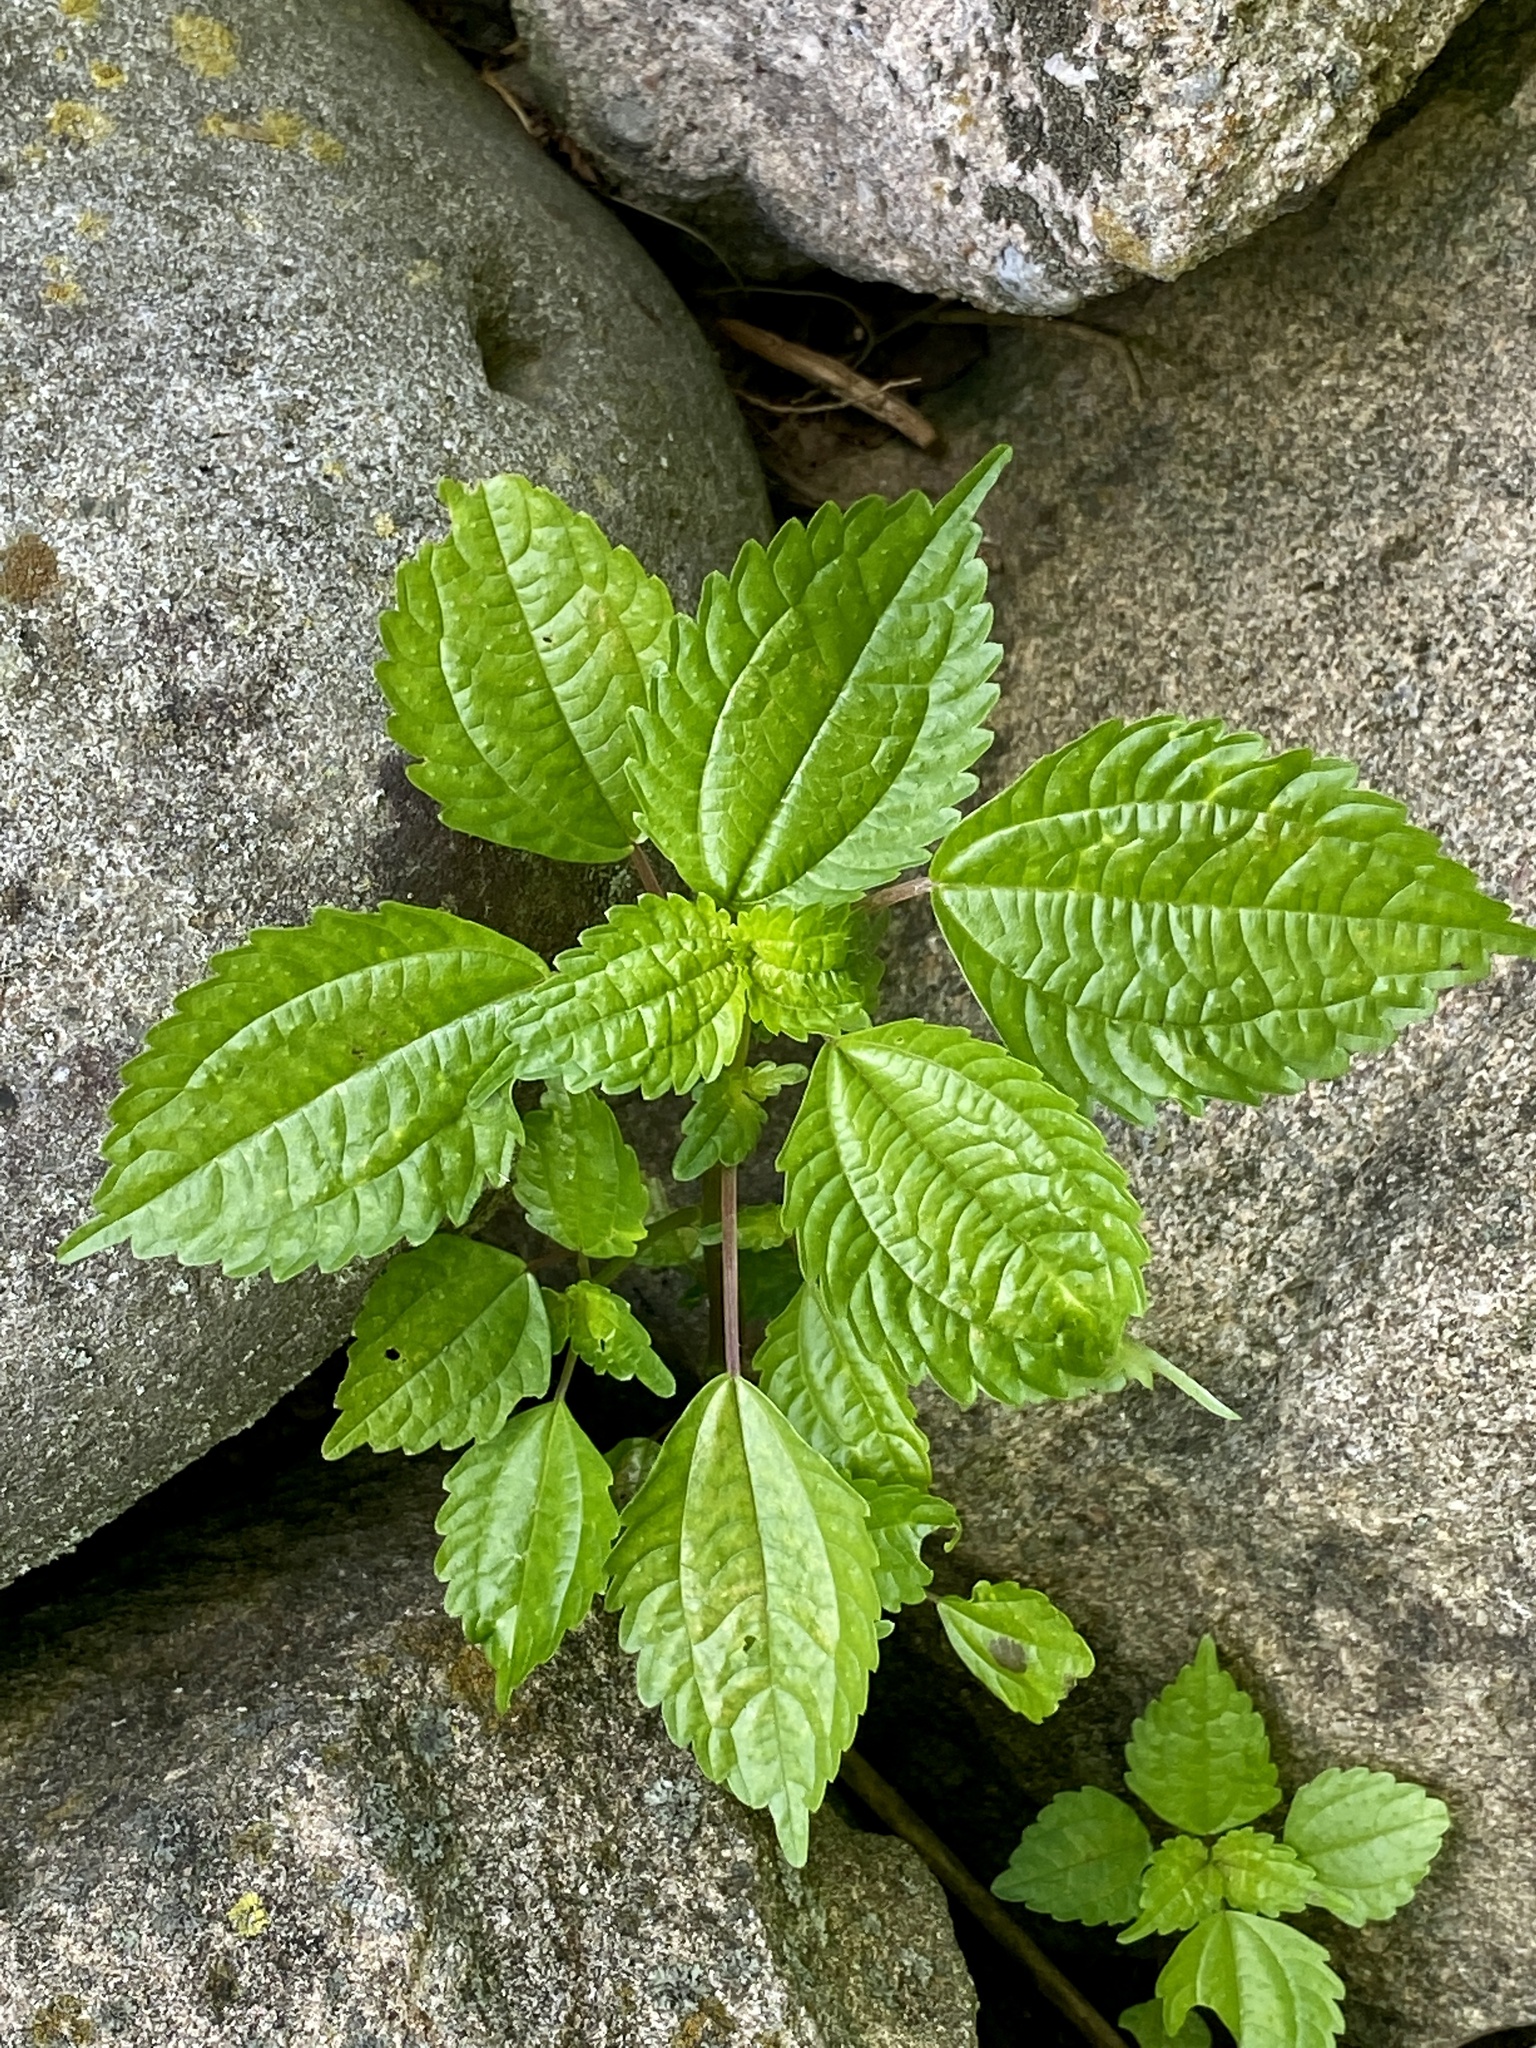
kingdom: Plantae
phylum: Tracheophyta
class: Magnoliopsida
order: Rosales
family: Urticaceae
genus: Pilea
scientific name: Pilea pumila
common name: Clearweed
